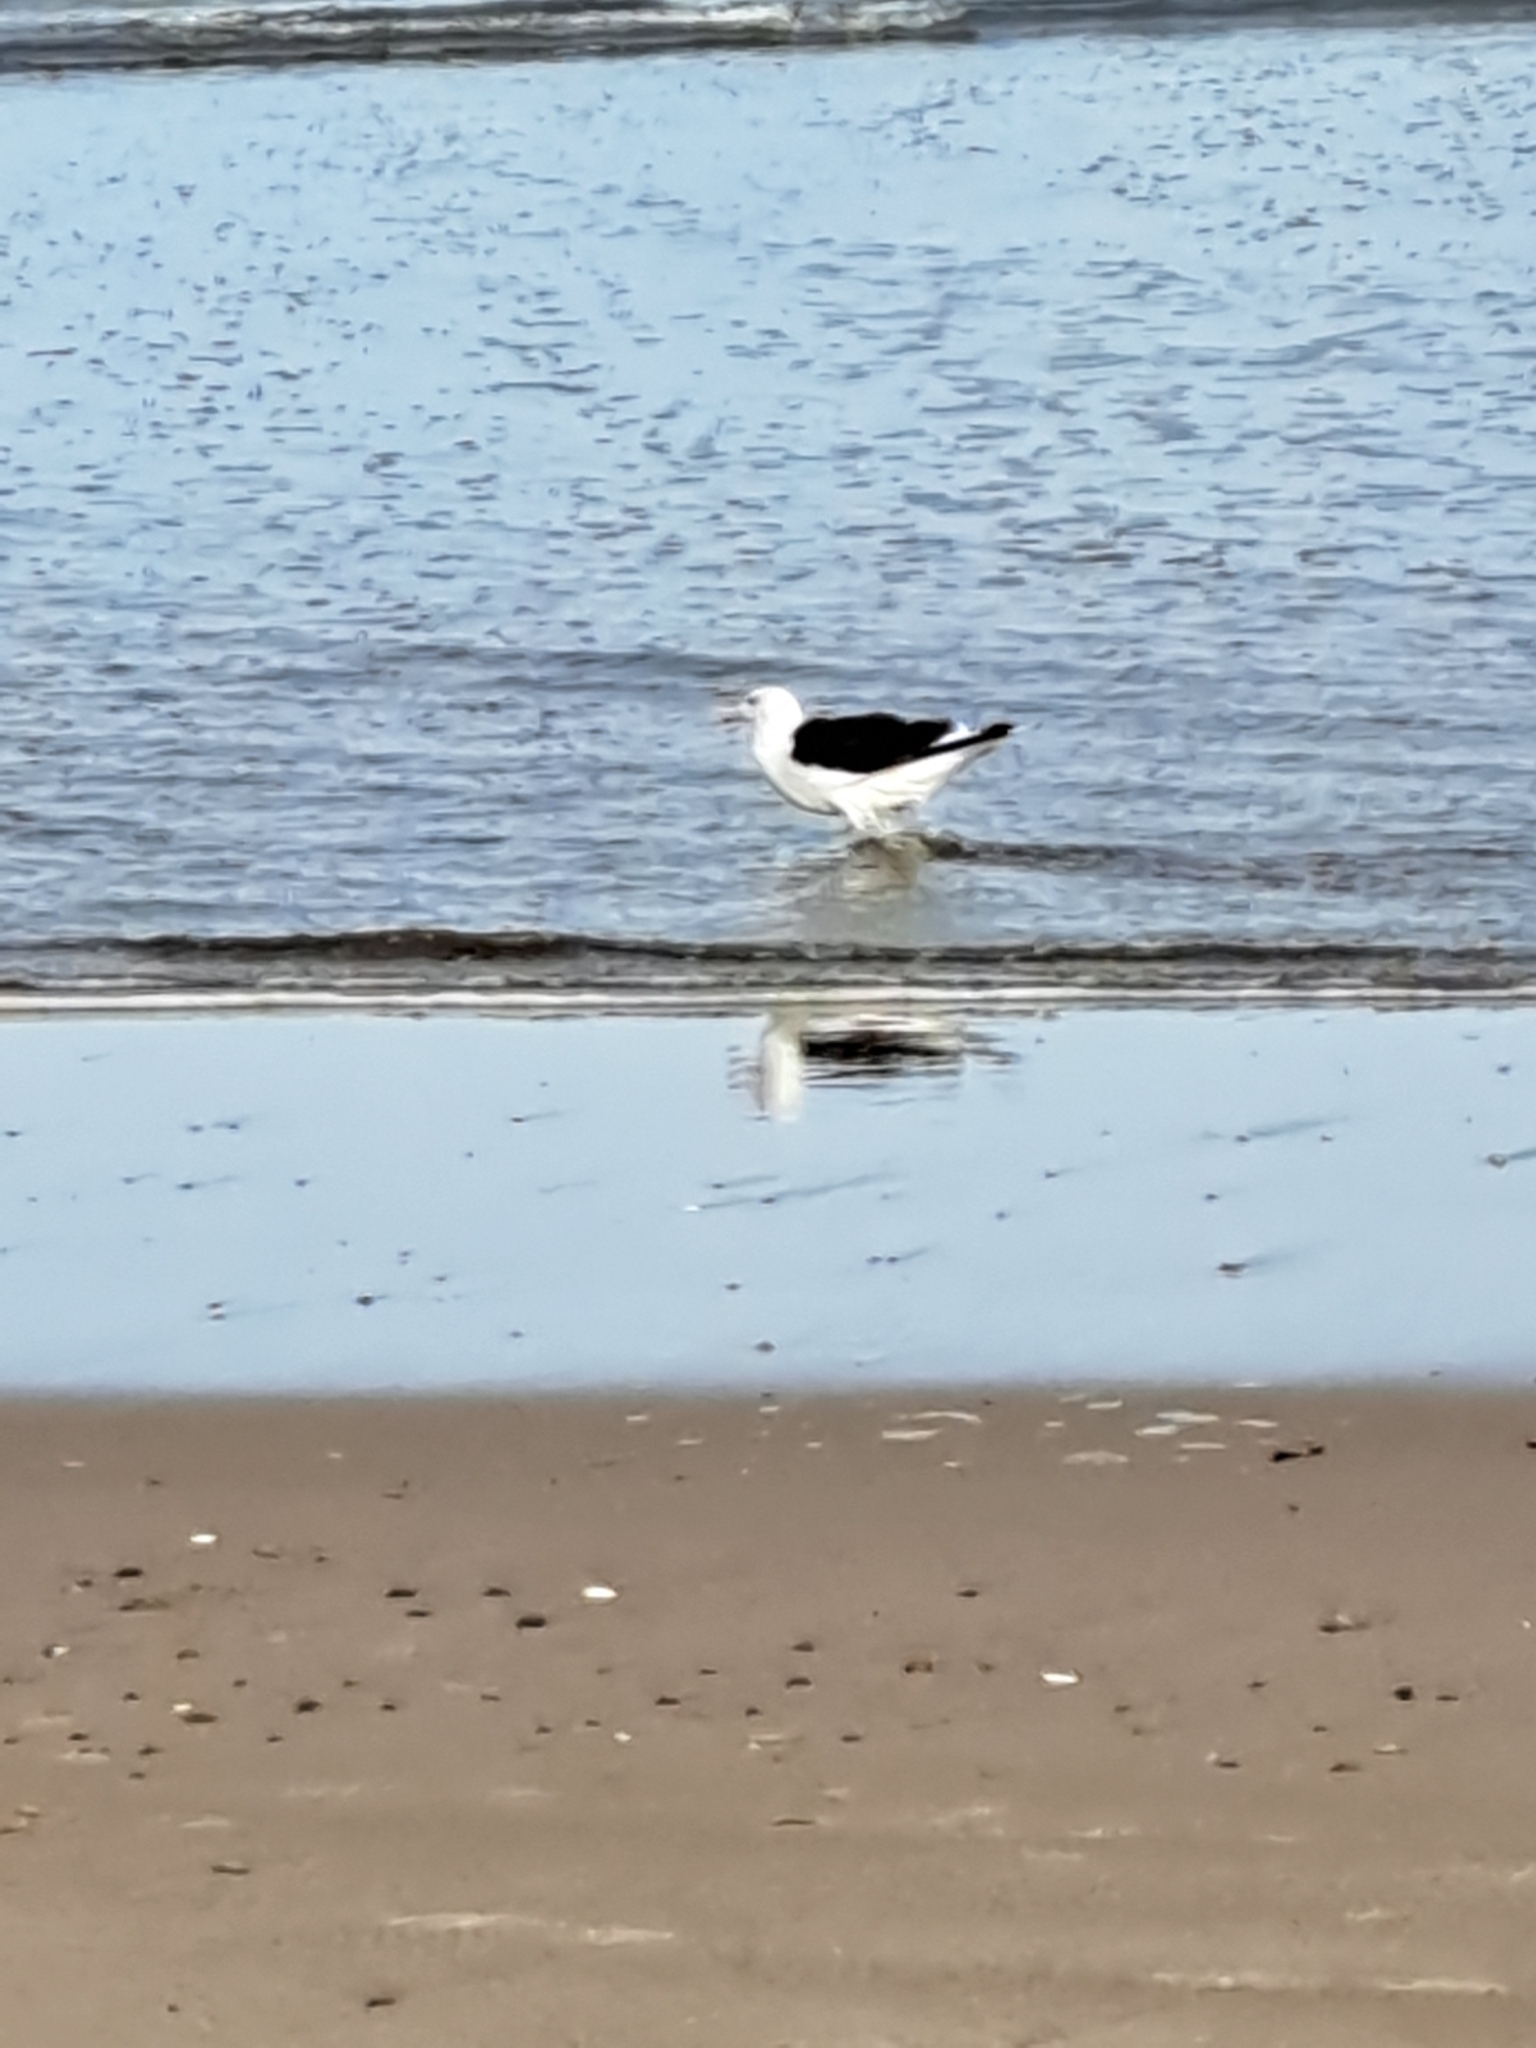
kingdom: Animalia
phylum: Chordata
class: Aves
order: Charadriiformes
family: Laridae
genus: Larus
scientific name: Larus marinus
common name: Great black-backed gull
